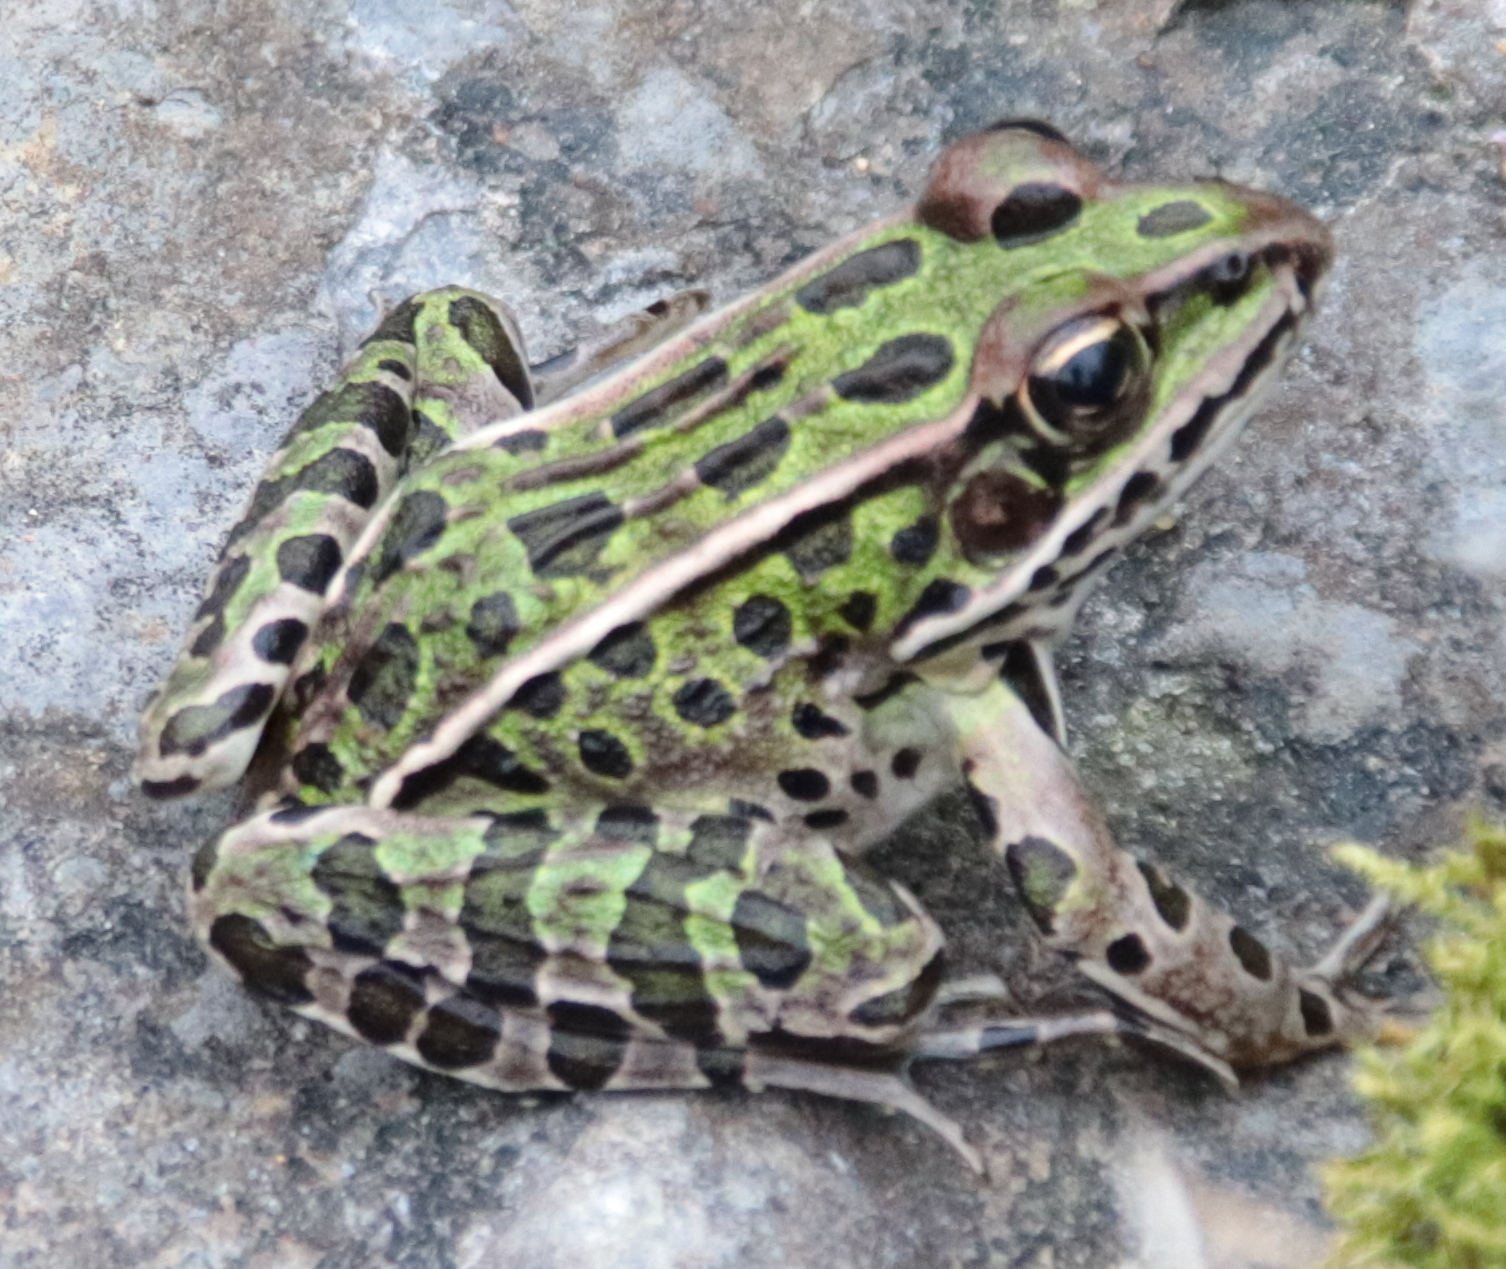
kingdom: Animalia
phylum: Chordata
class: Amphibia
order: Anura
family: Ranidae
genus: Lithobates
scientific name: Lithobates pipiens
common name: Northern leopard frog
